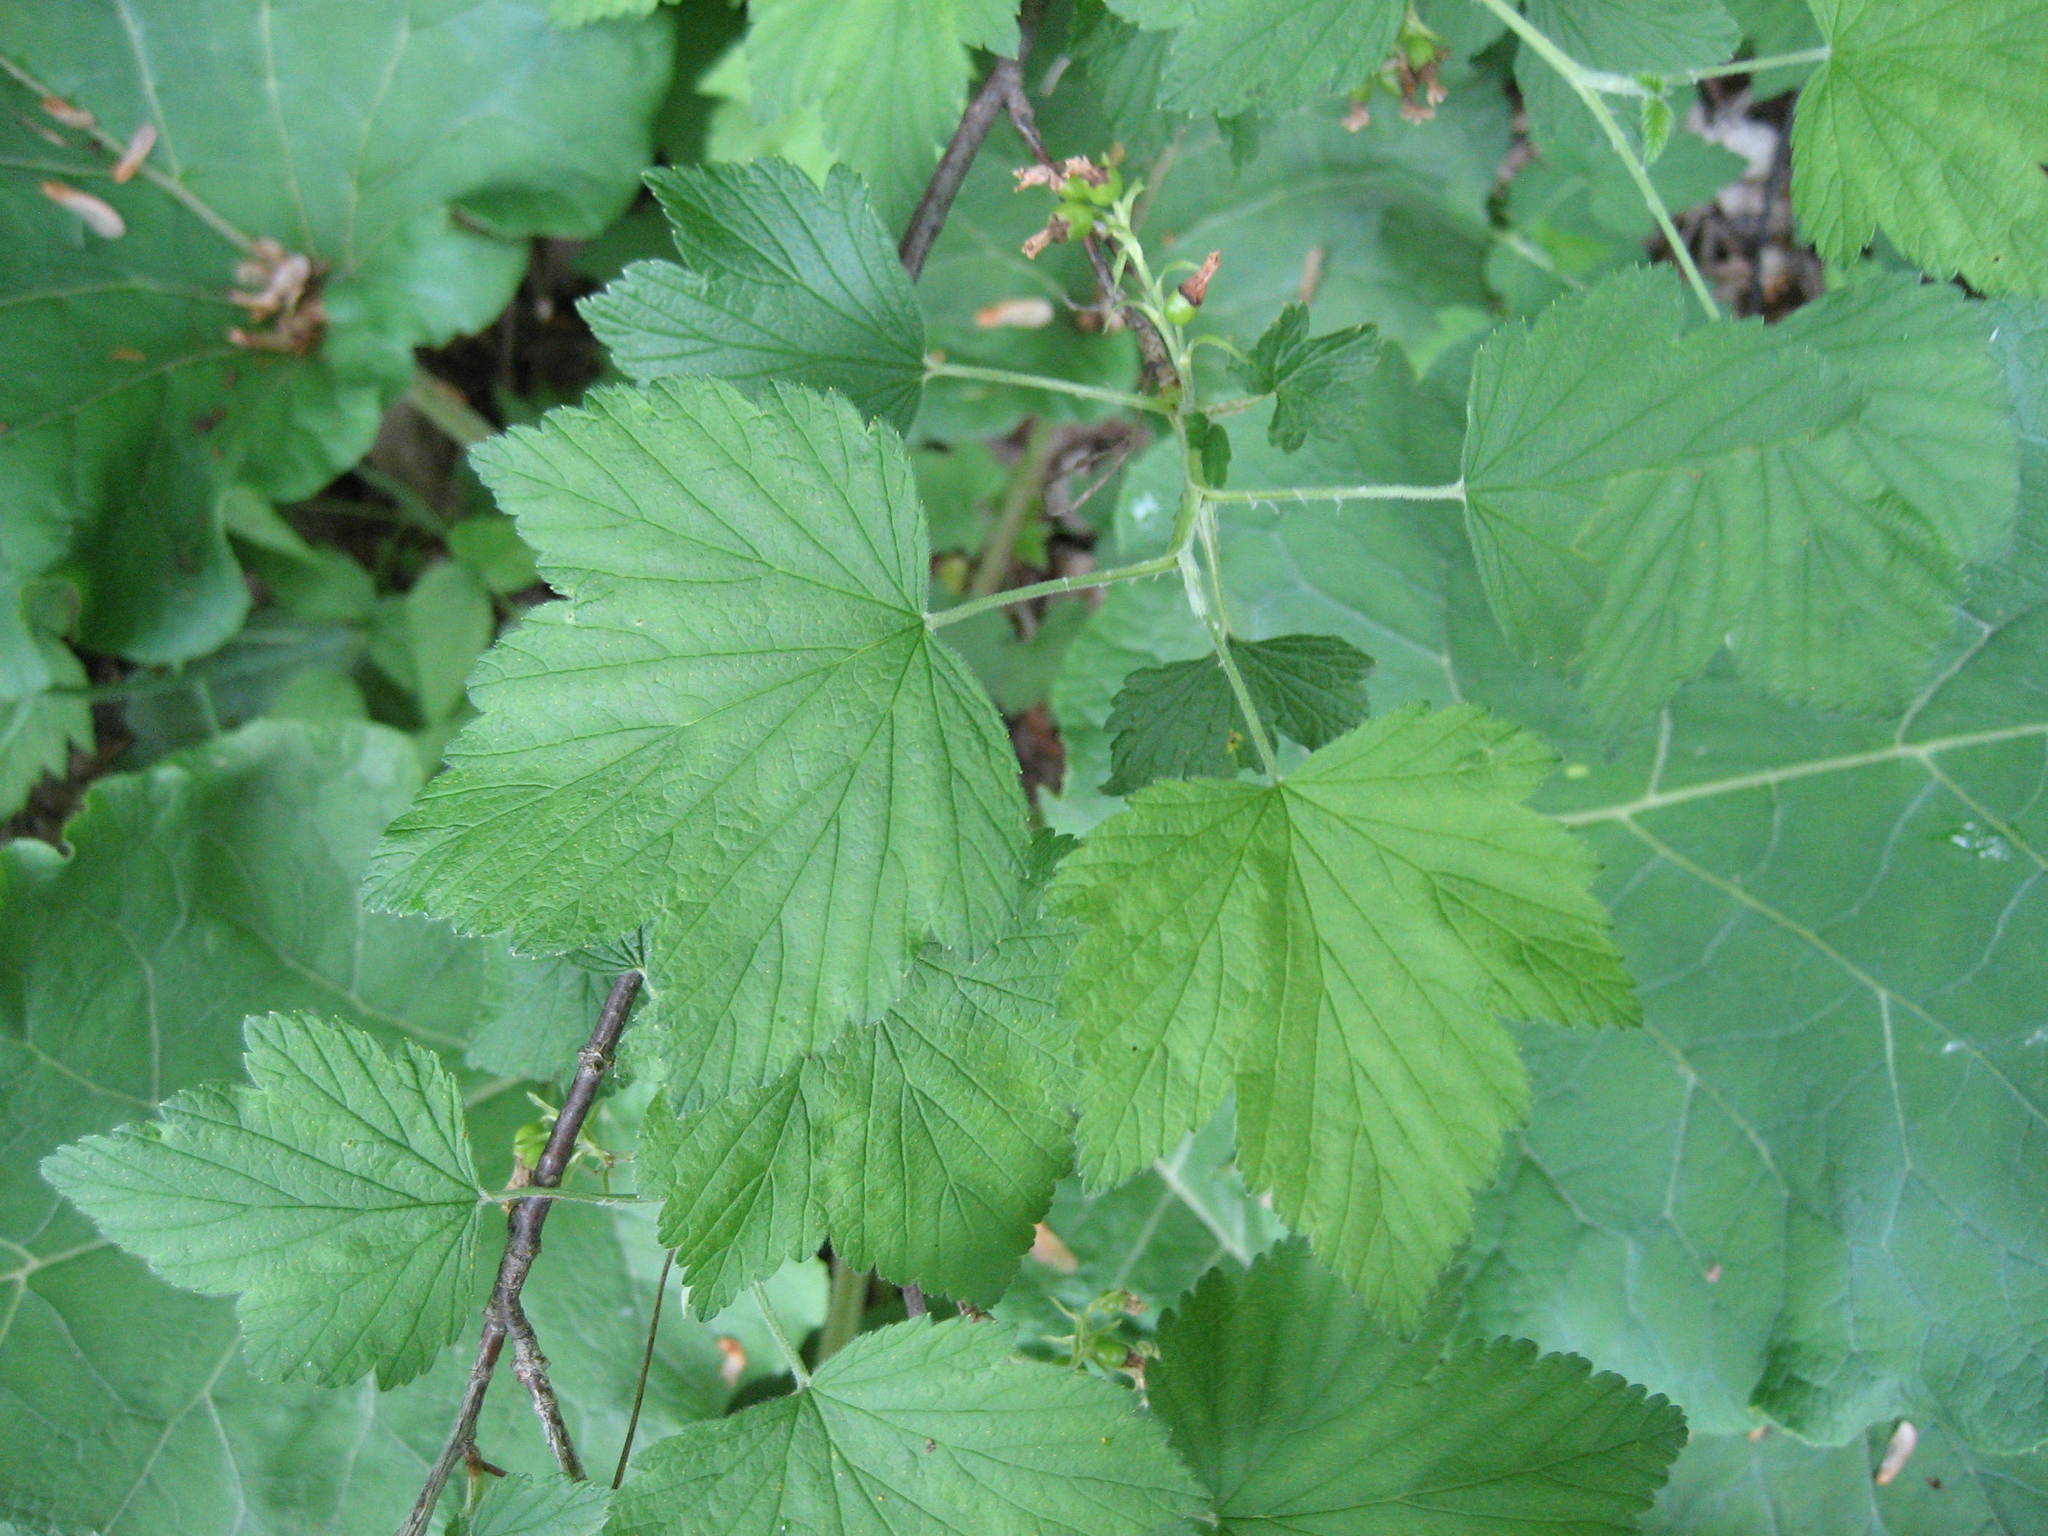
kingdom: Plantae
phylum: Tracheophyta
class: Magnoliopsida
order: Saxifragales
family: Grossulariaceae
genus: Ribes
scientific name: Ribes americanum
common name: American black currant
